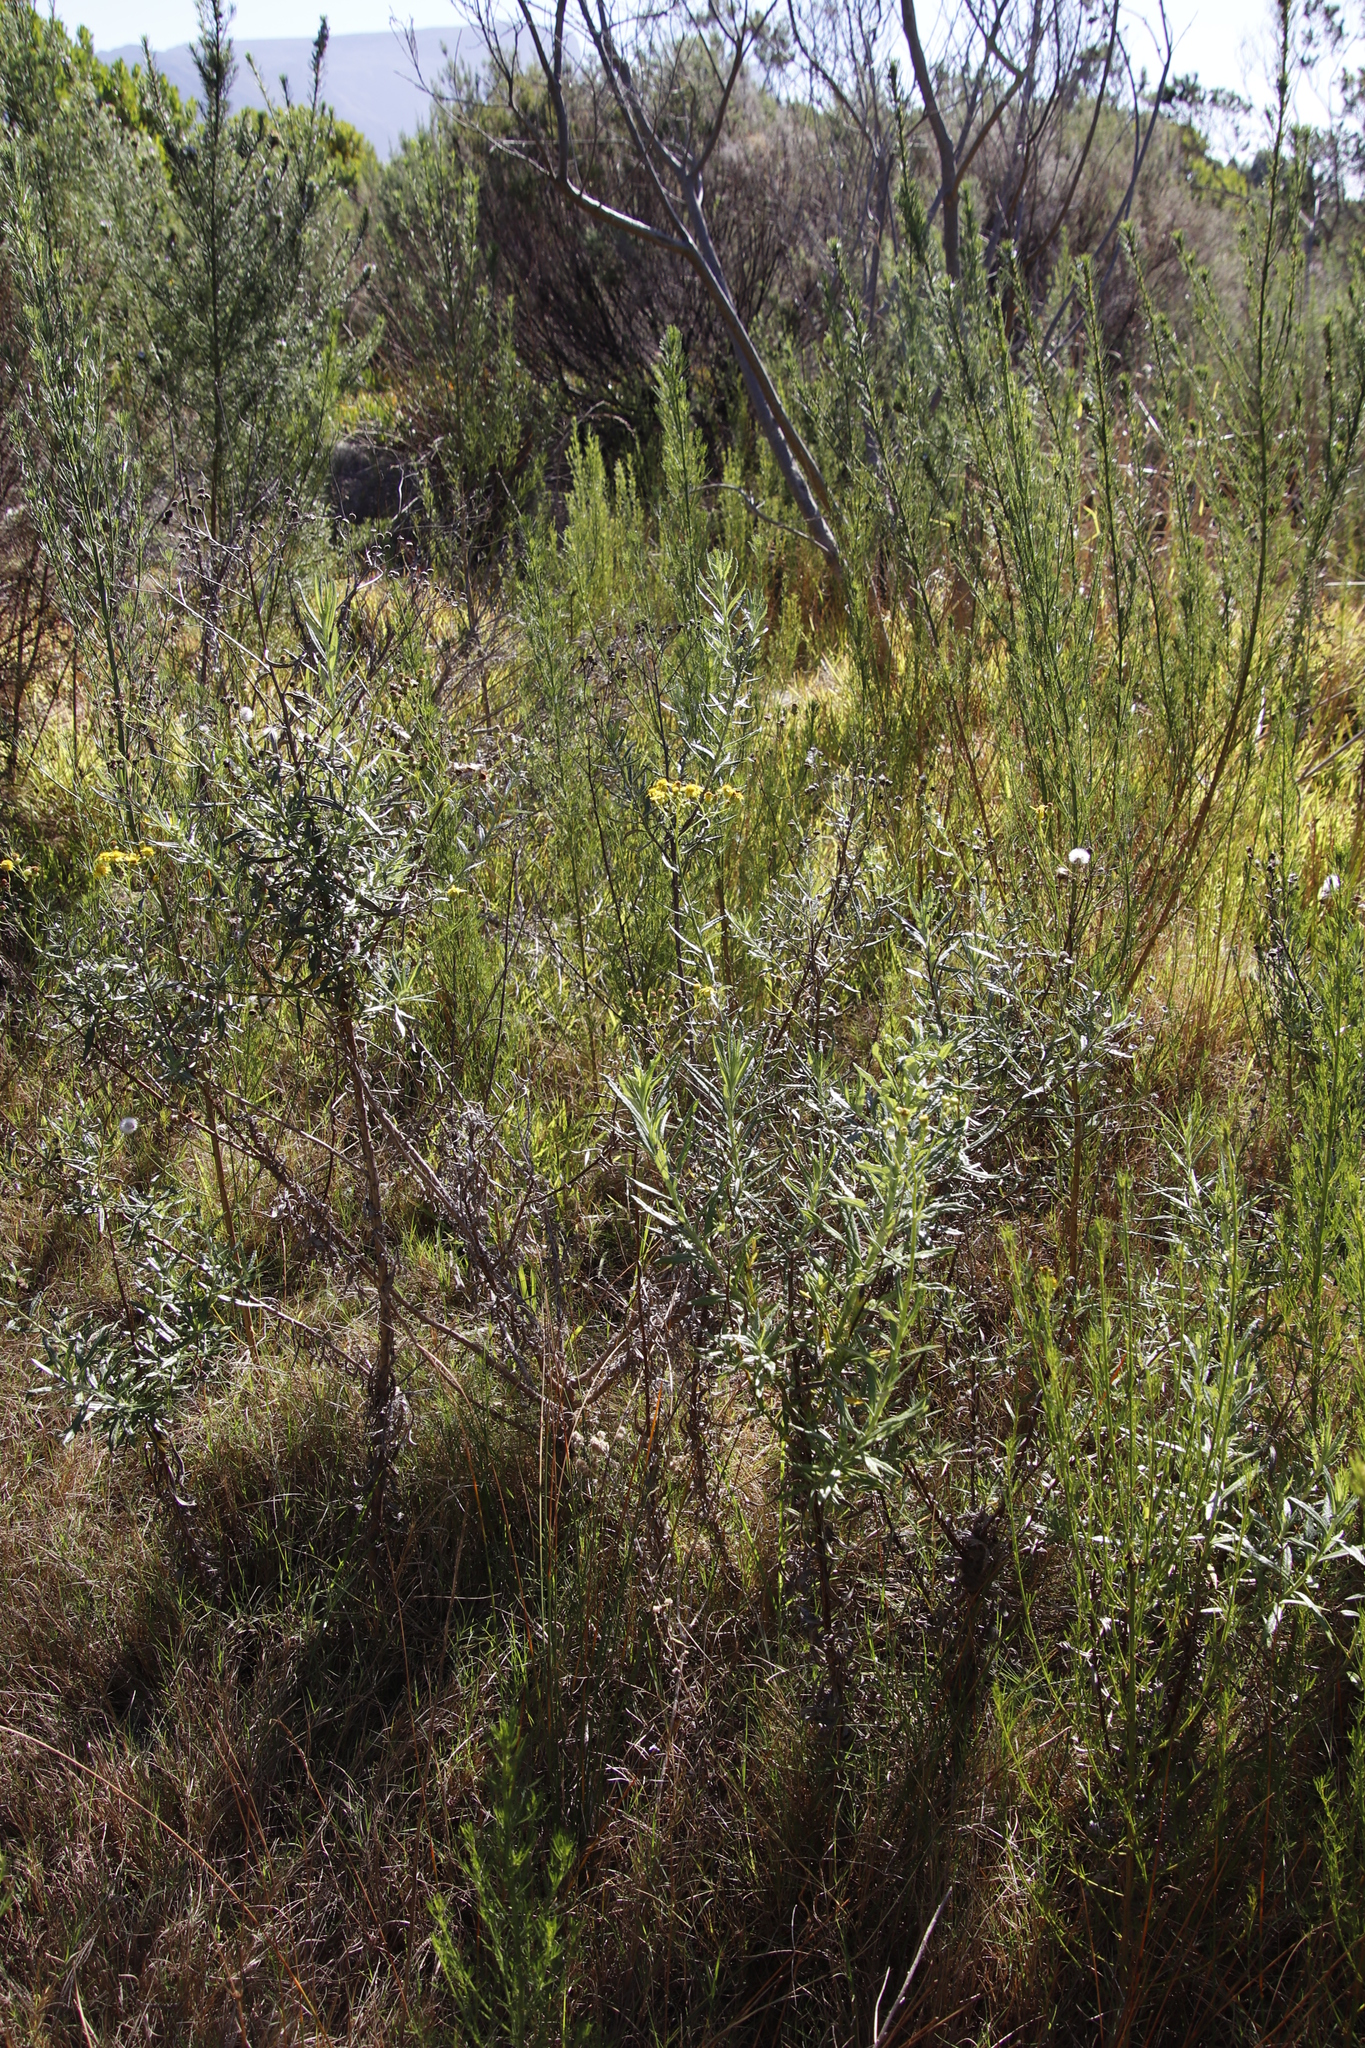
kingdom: Plantae
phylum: Tracheophyta
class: Magnoliopsida
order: Asterales
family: Asteraceae
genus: Senecio
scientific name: Senecio pterophorus
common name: Shoddy ragwort
